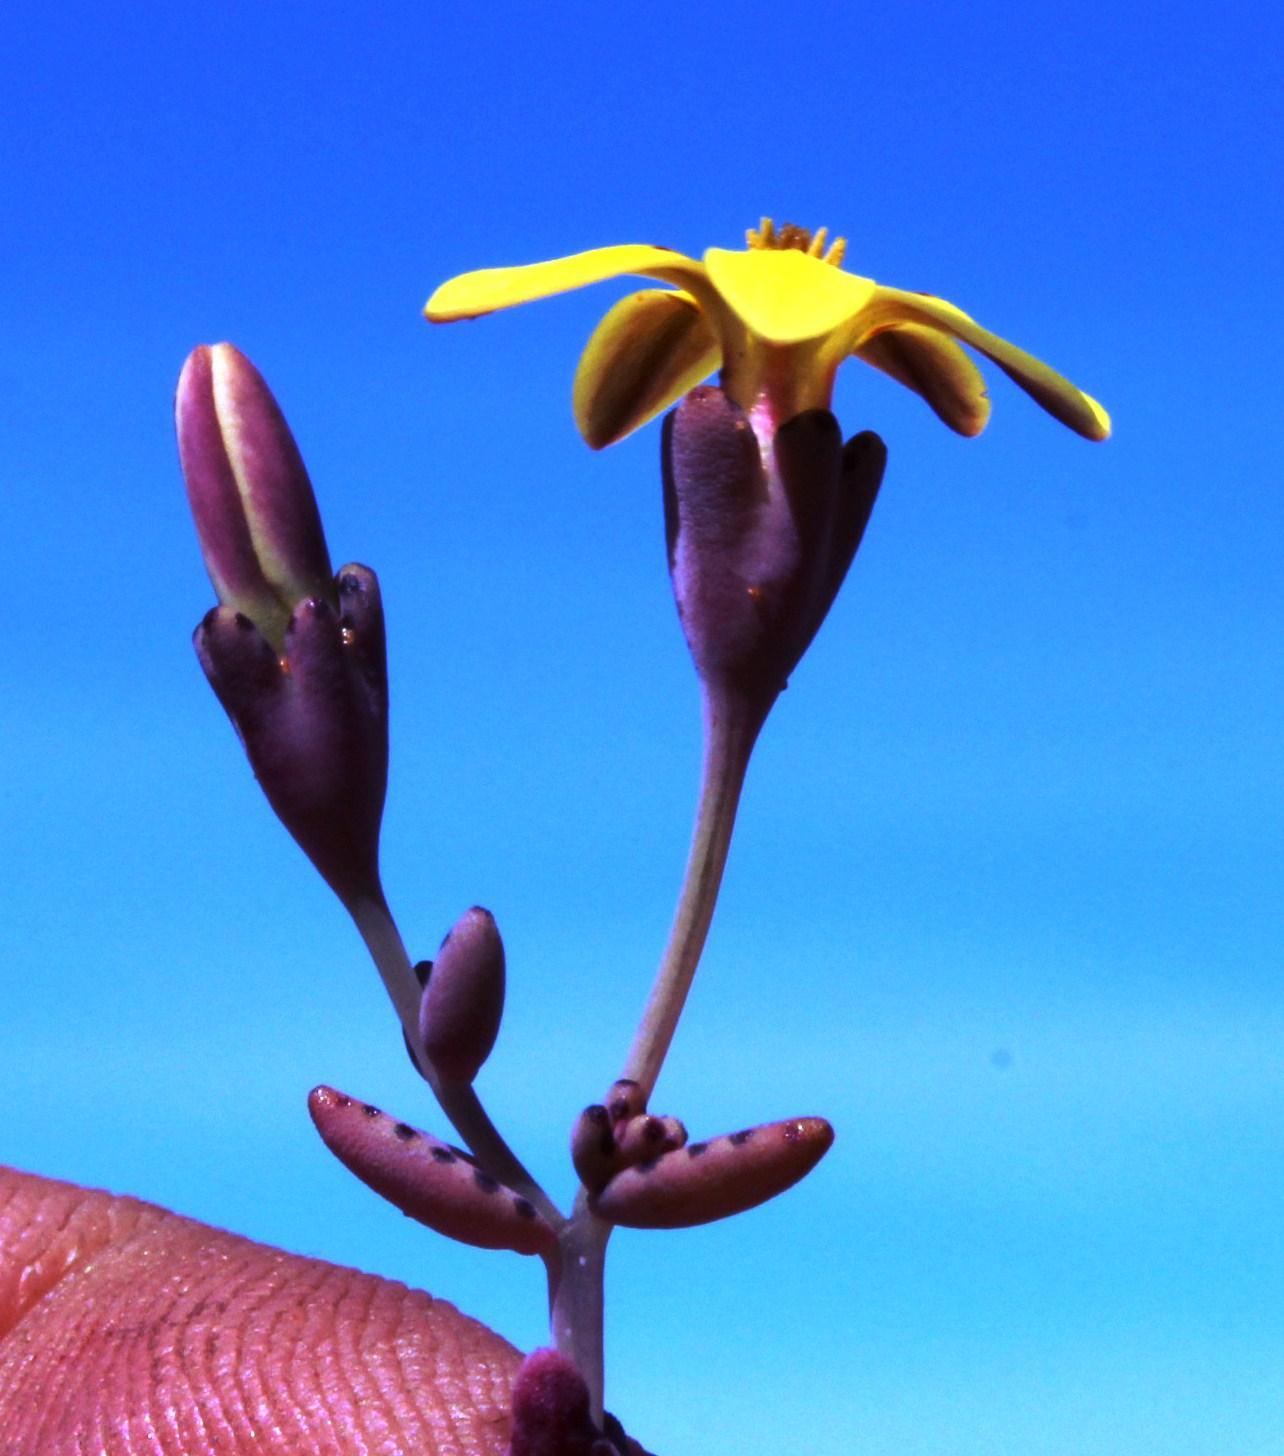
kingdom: Plantae
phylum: Tracheophyta
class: Magnoliopsida
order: Saxifragales
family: Crassulaceae
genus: Crassula
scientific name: Crassula dichotoma
